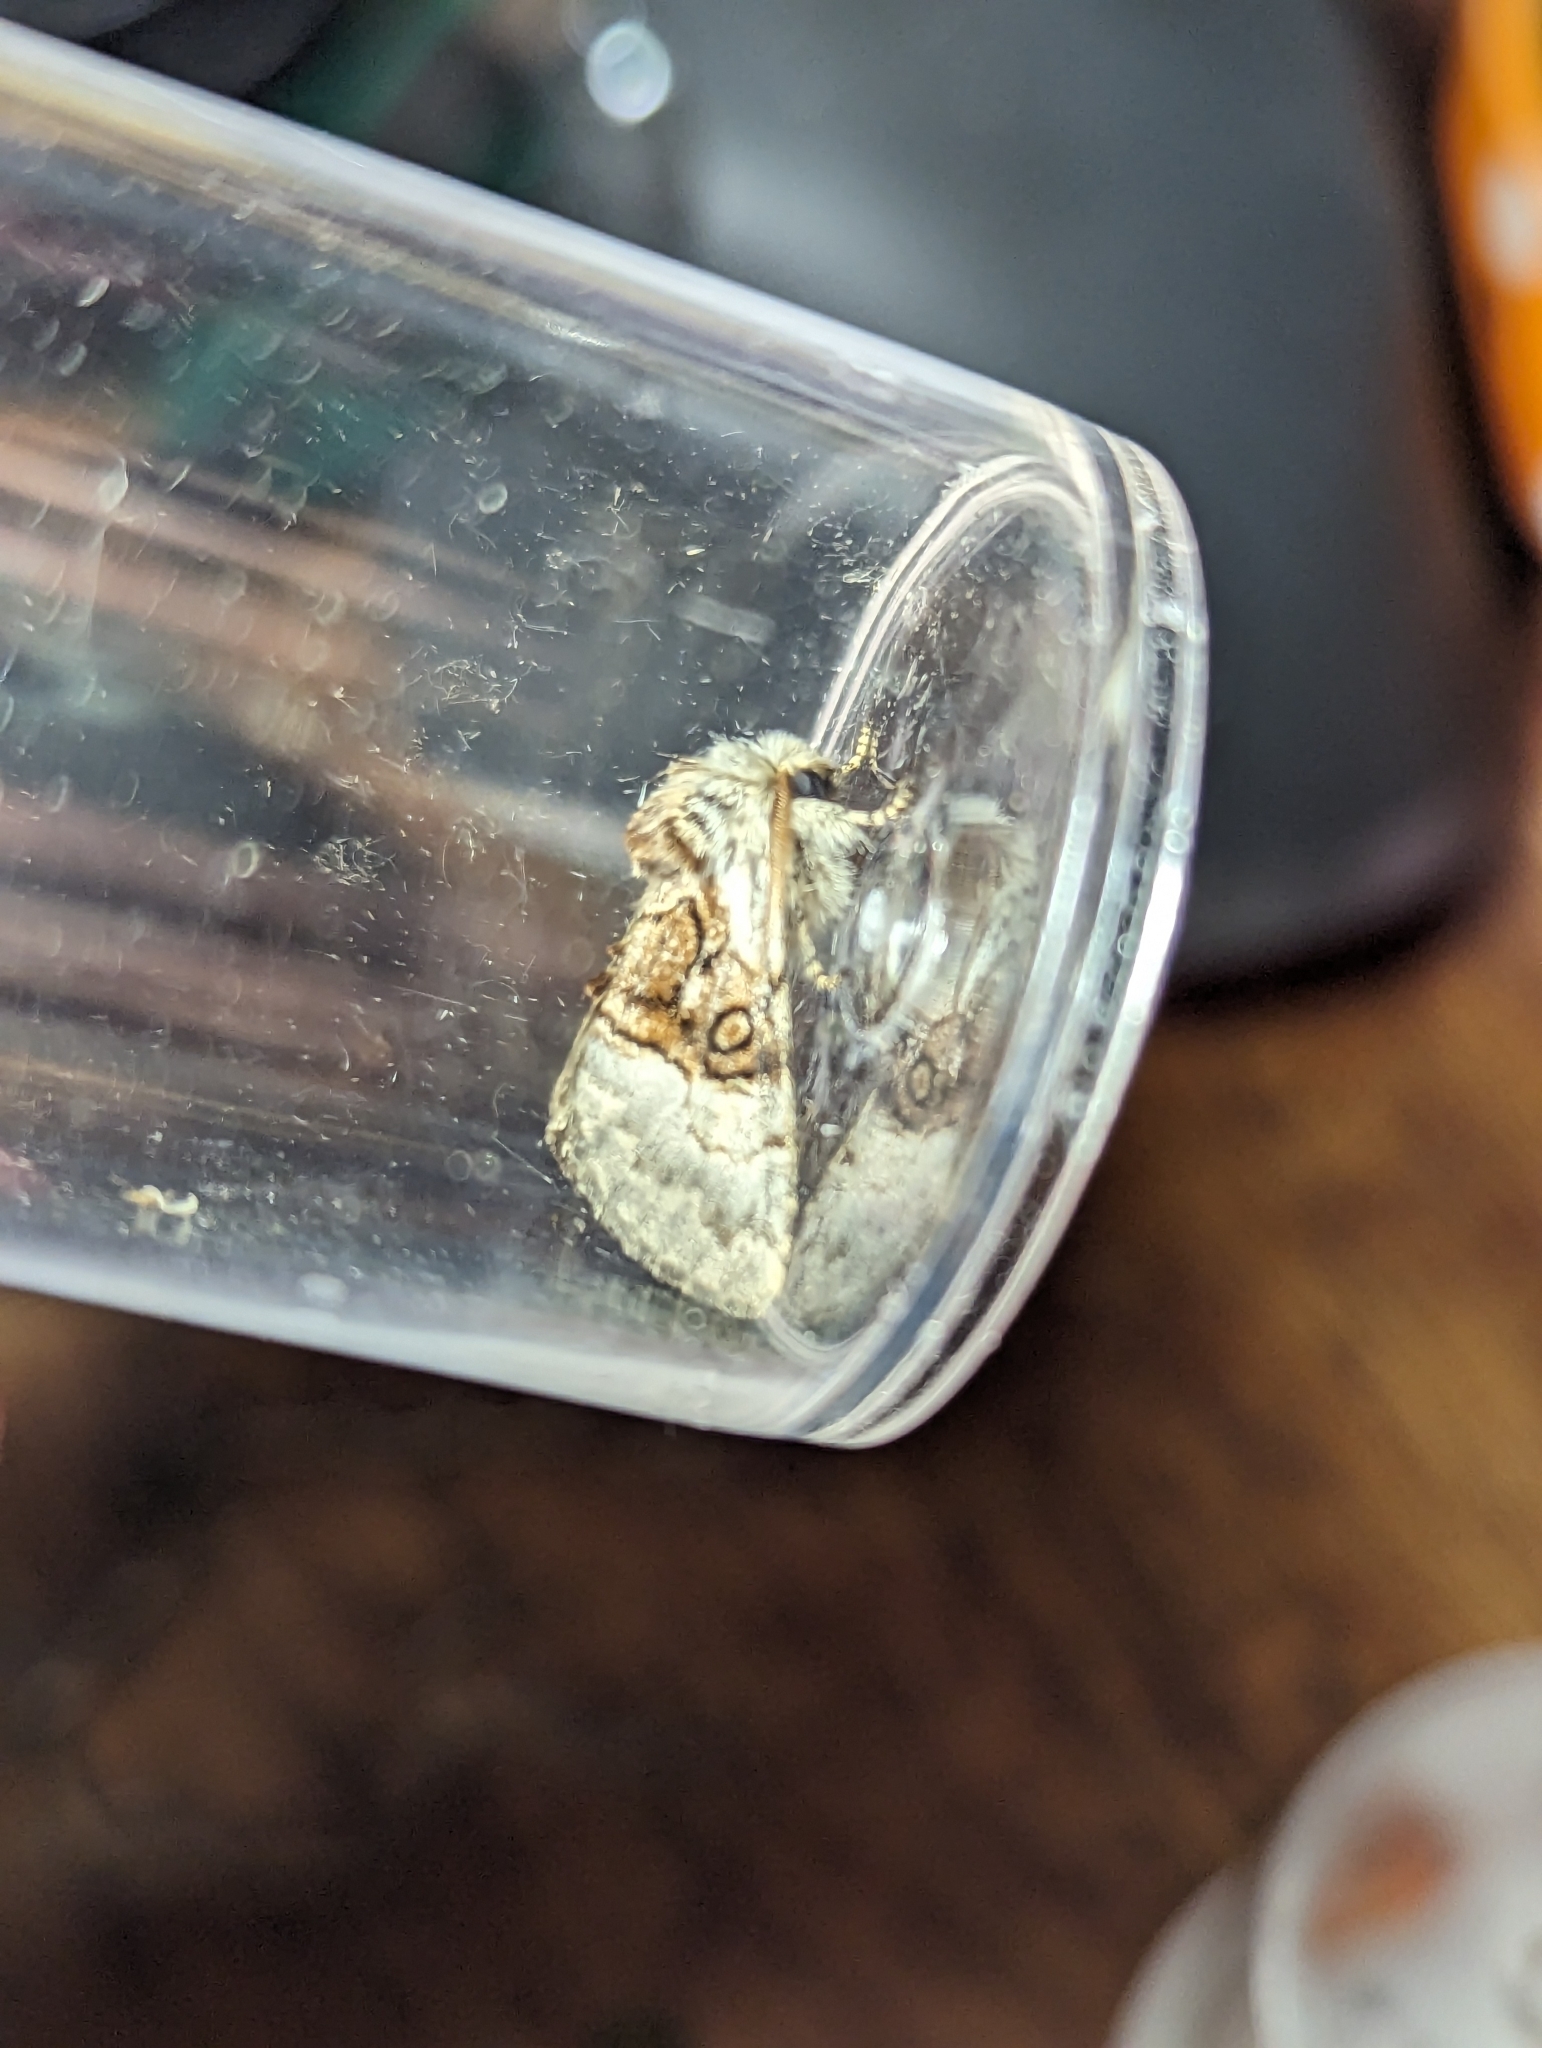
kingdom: Animalia
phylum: Arthropoda
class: Insecta
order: Lepidoptera
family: Noctuidae
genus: Colocasia
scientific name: Colocasia coryli
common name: Nut-tree tussock
